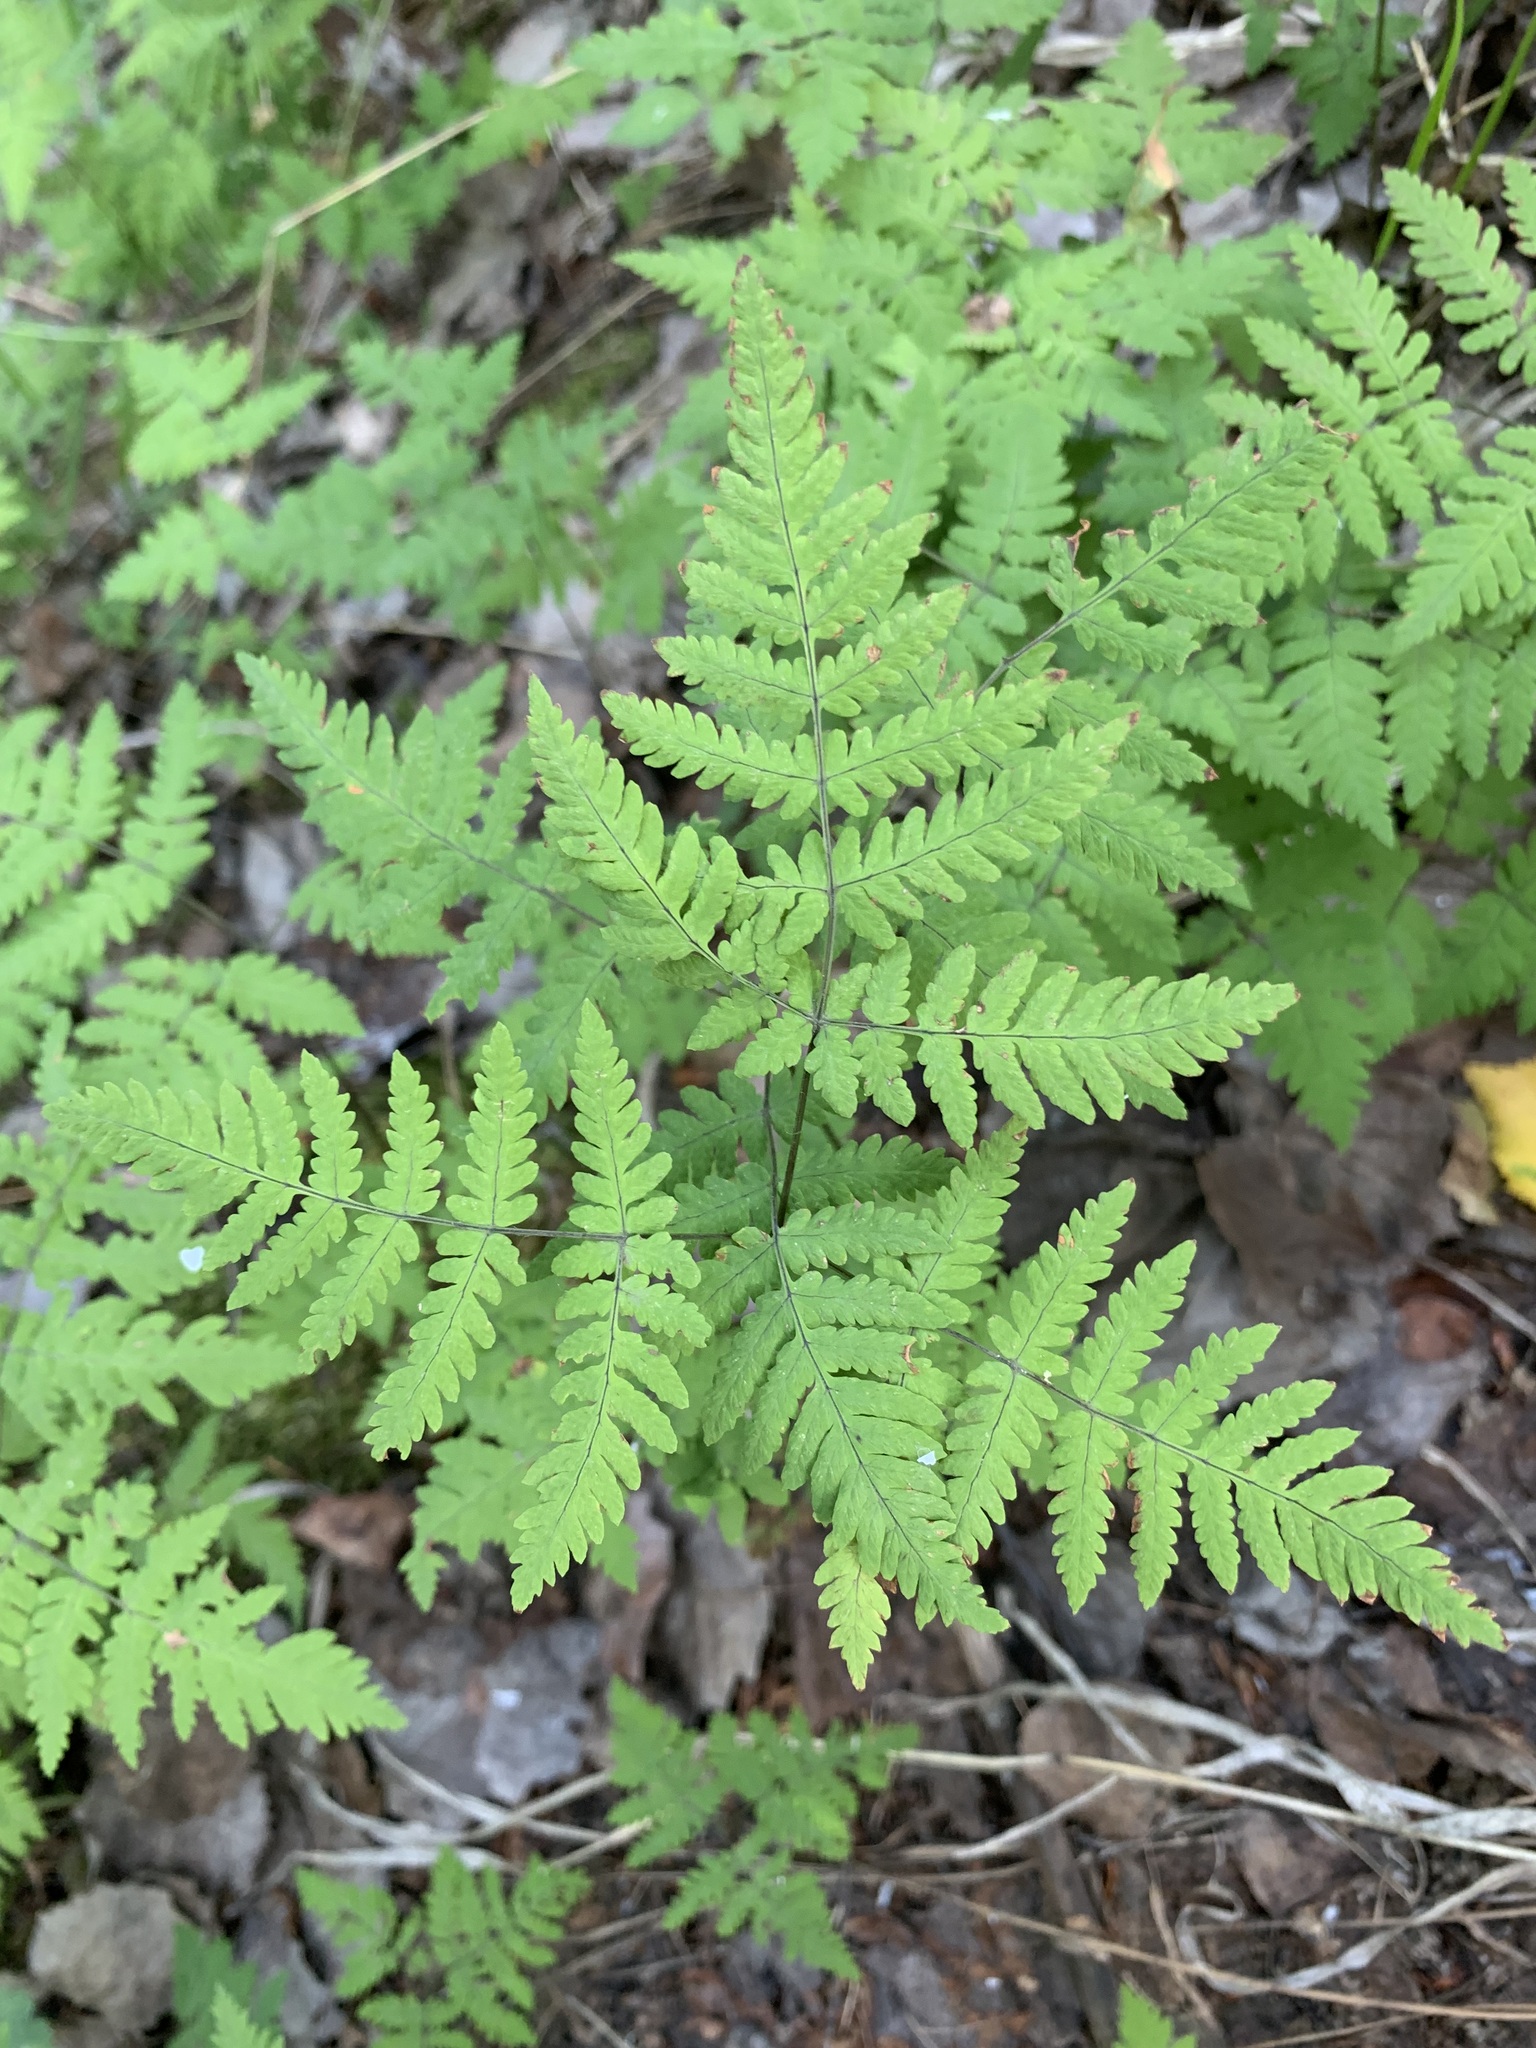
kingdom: Plantae
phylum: Tracheophyta
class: Polypodiopsida
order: Polypodiales
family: Cystopteridaceae
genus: Gymnocarpium
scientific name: Gymnocarpium dryopteris
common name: Oak fern
